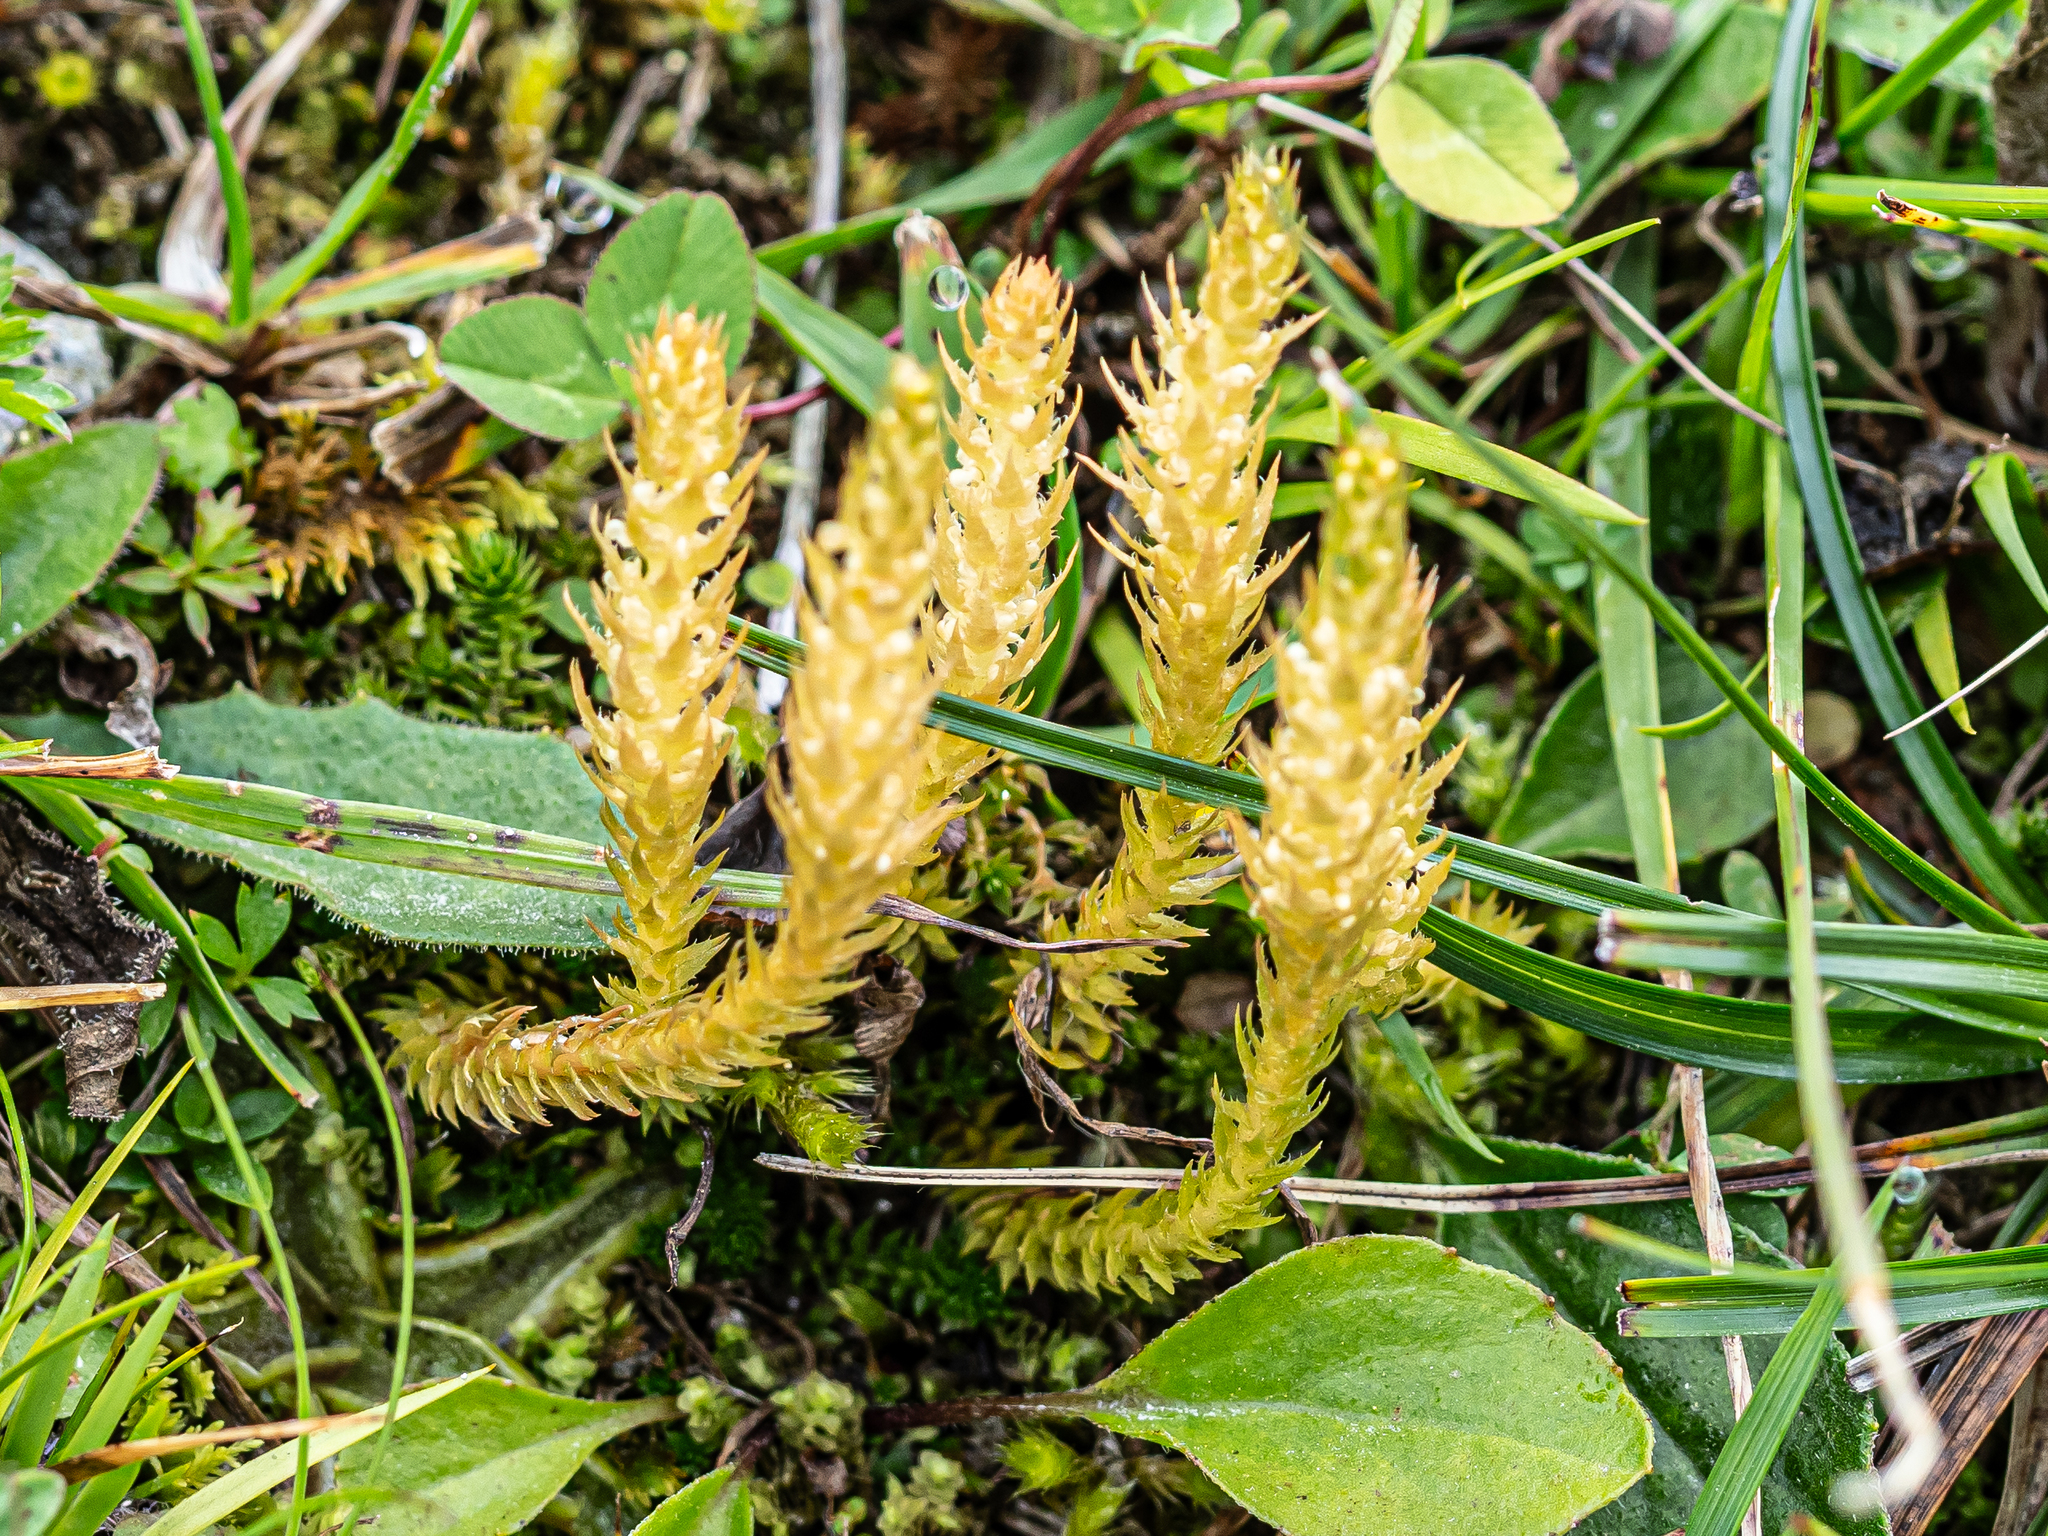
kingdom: Plantae
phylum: Tracheophyta
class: Lycopodiopsida
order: Selaginellales
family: Selaginellaceae
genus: Selaginella
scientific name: Selaginella selaginoides
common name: Prickly mountain-moss
